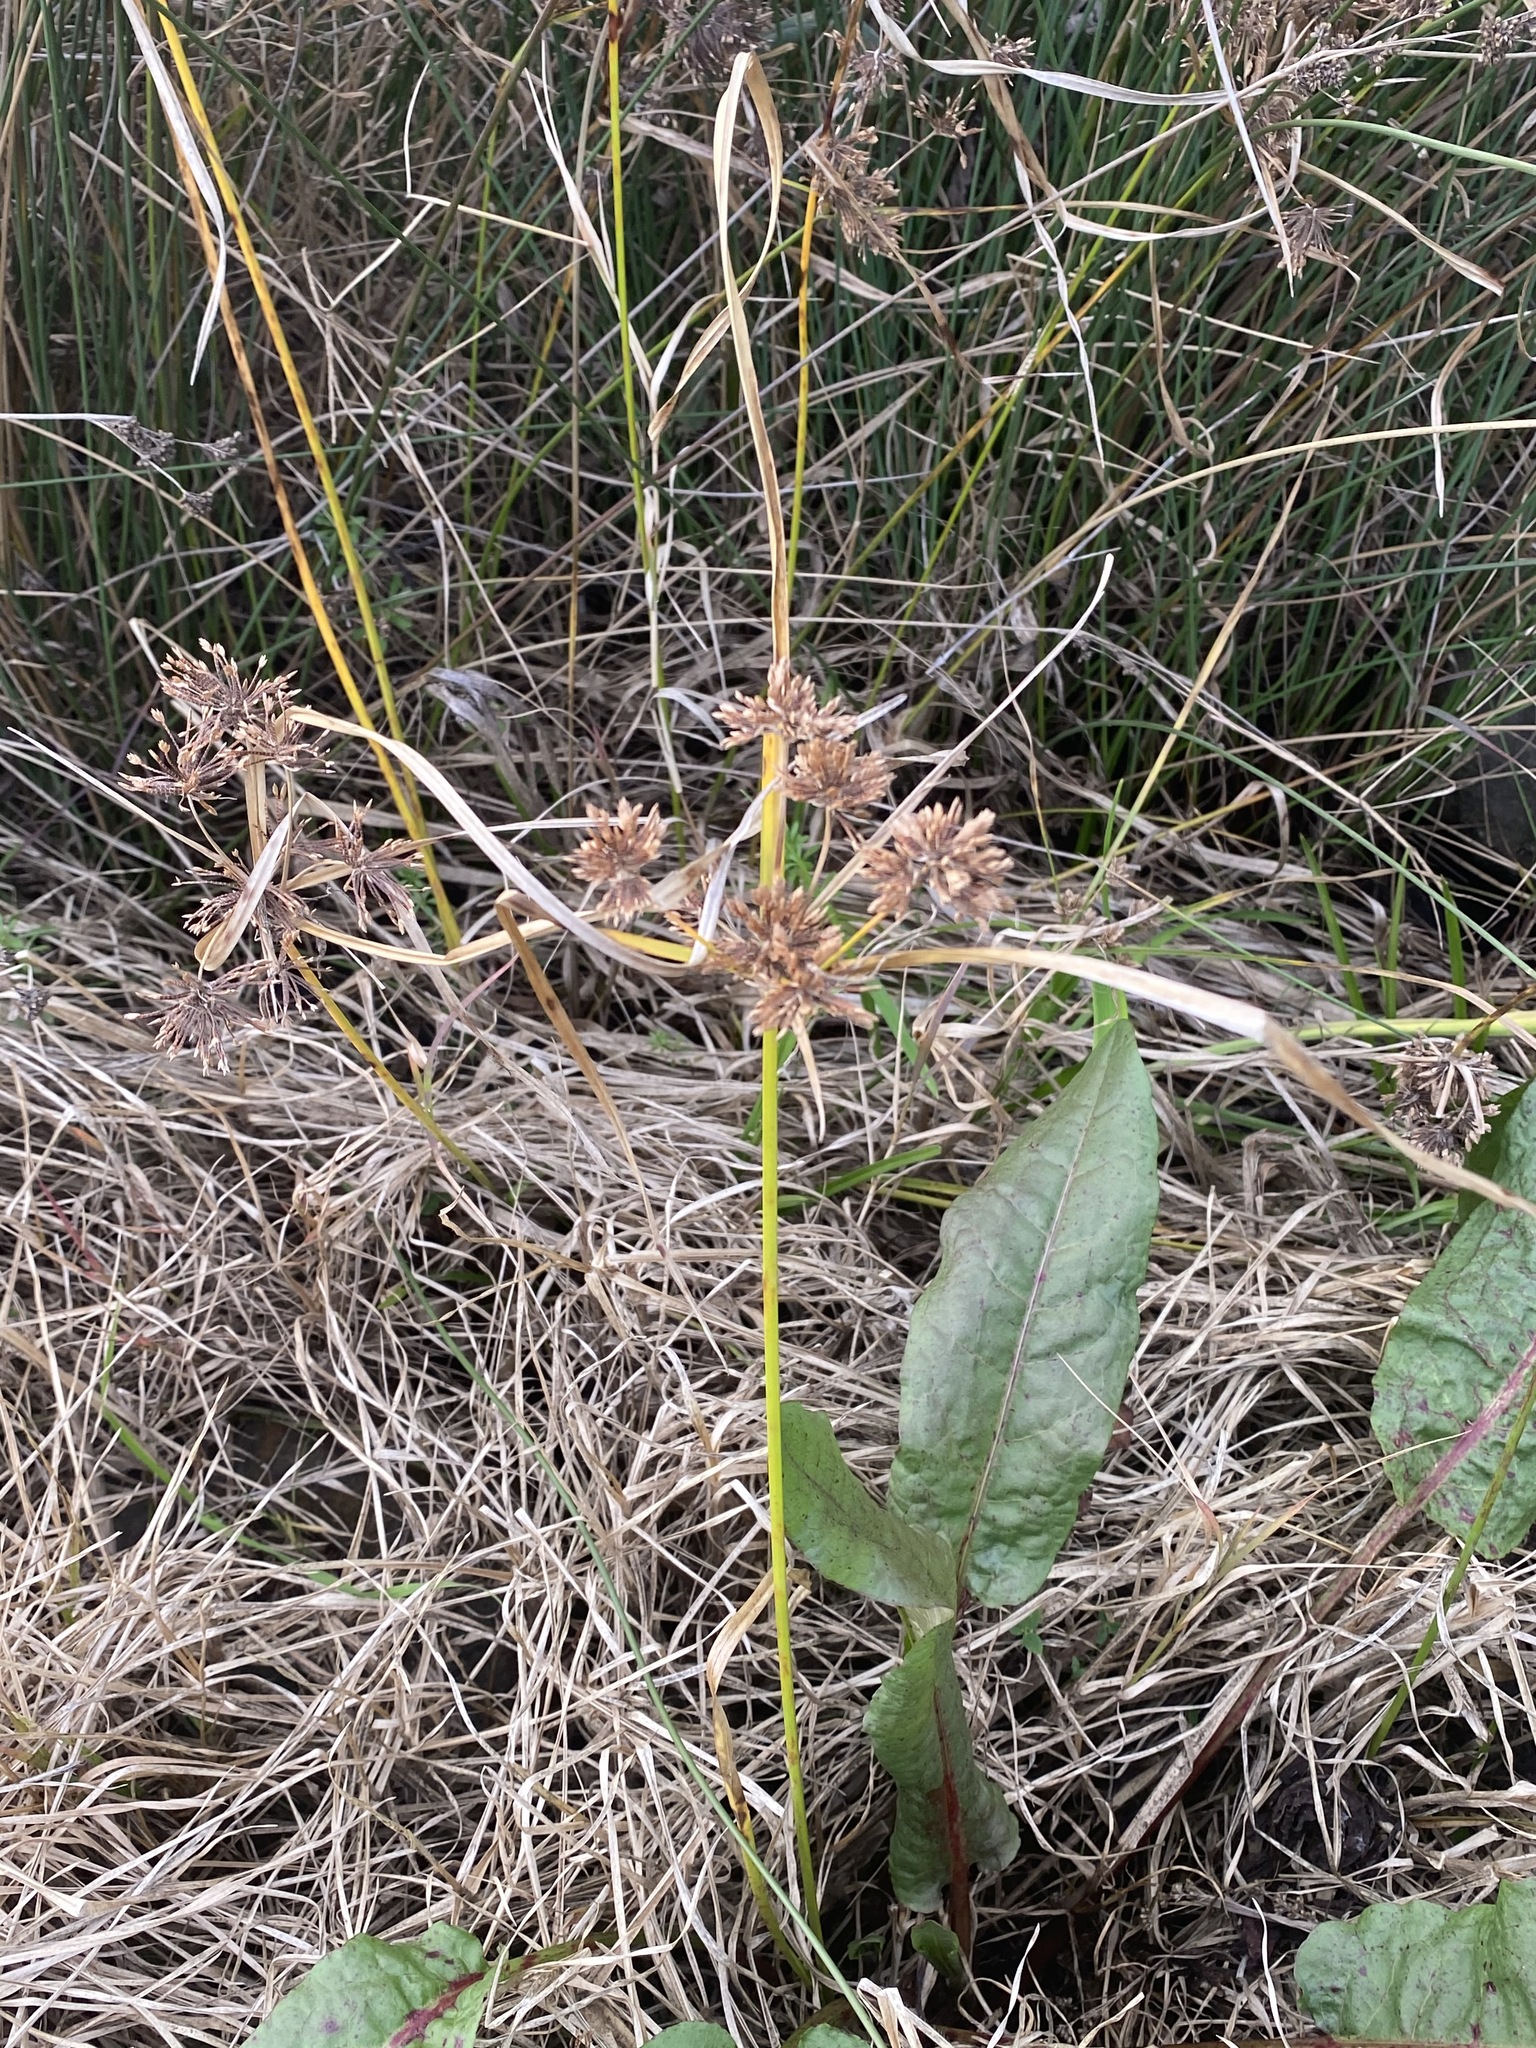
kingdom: Plantae
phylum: Tracheophyta
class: Liliopsida
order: Poales
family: Cyperaceae
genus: Cyperus
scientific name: Cyperus eragrostis
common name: Tall flatsedge
